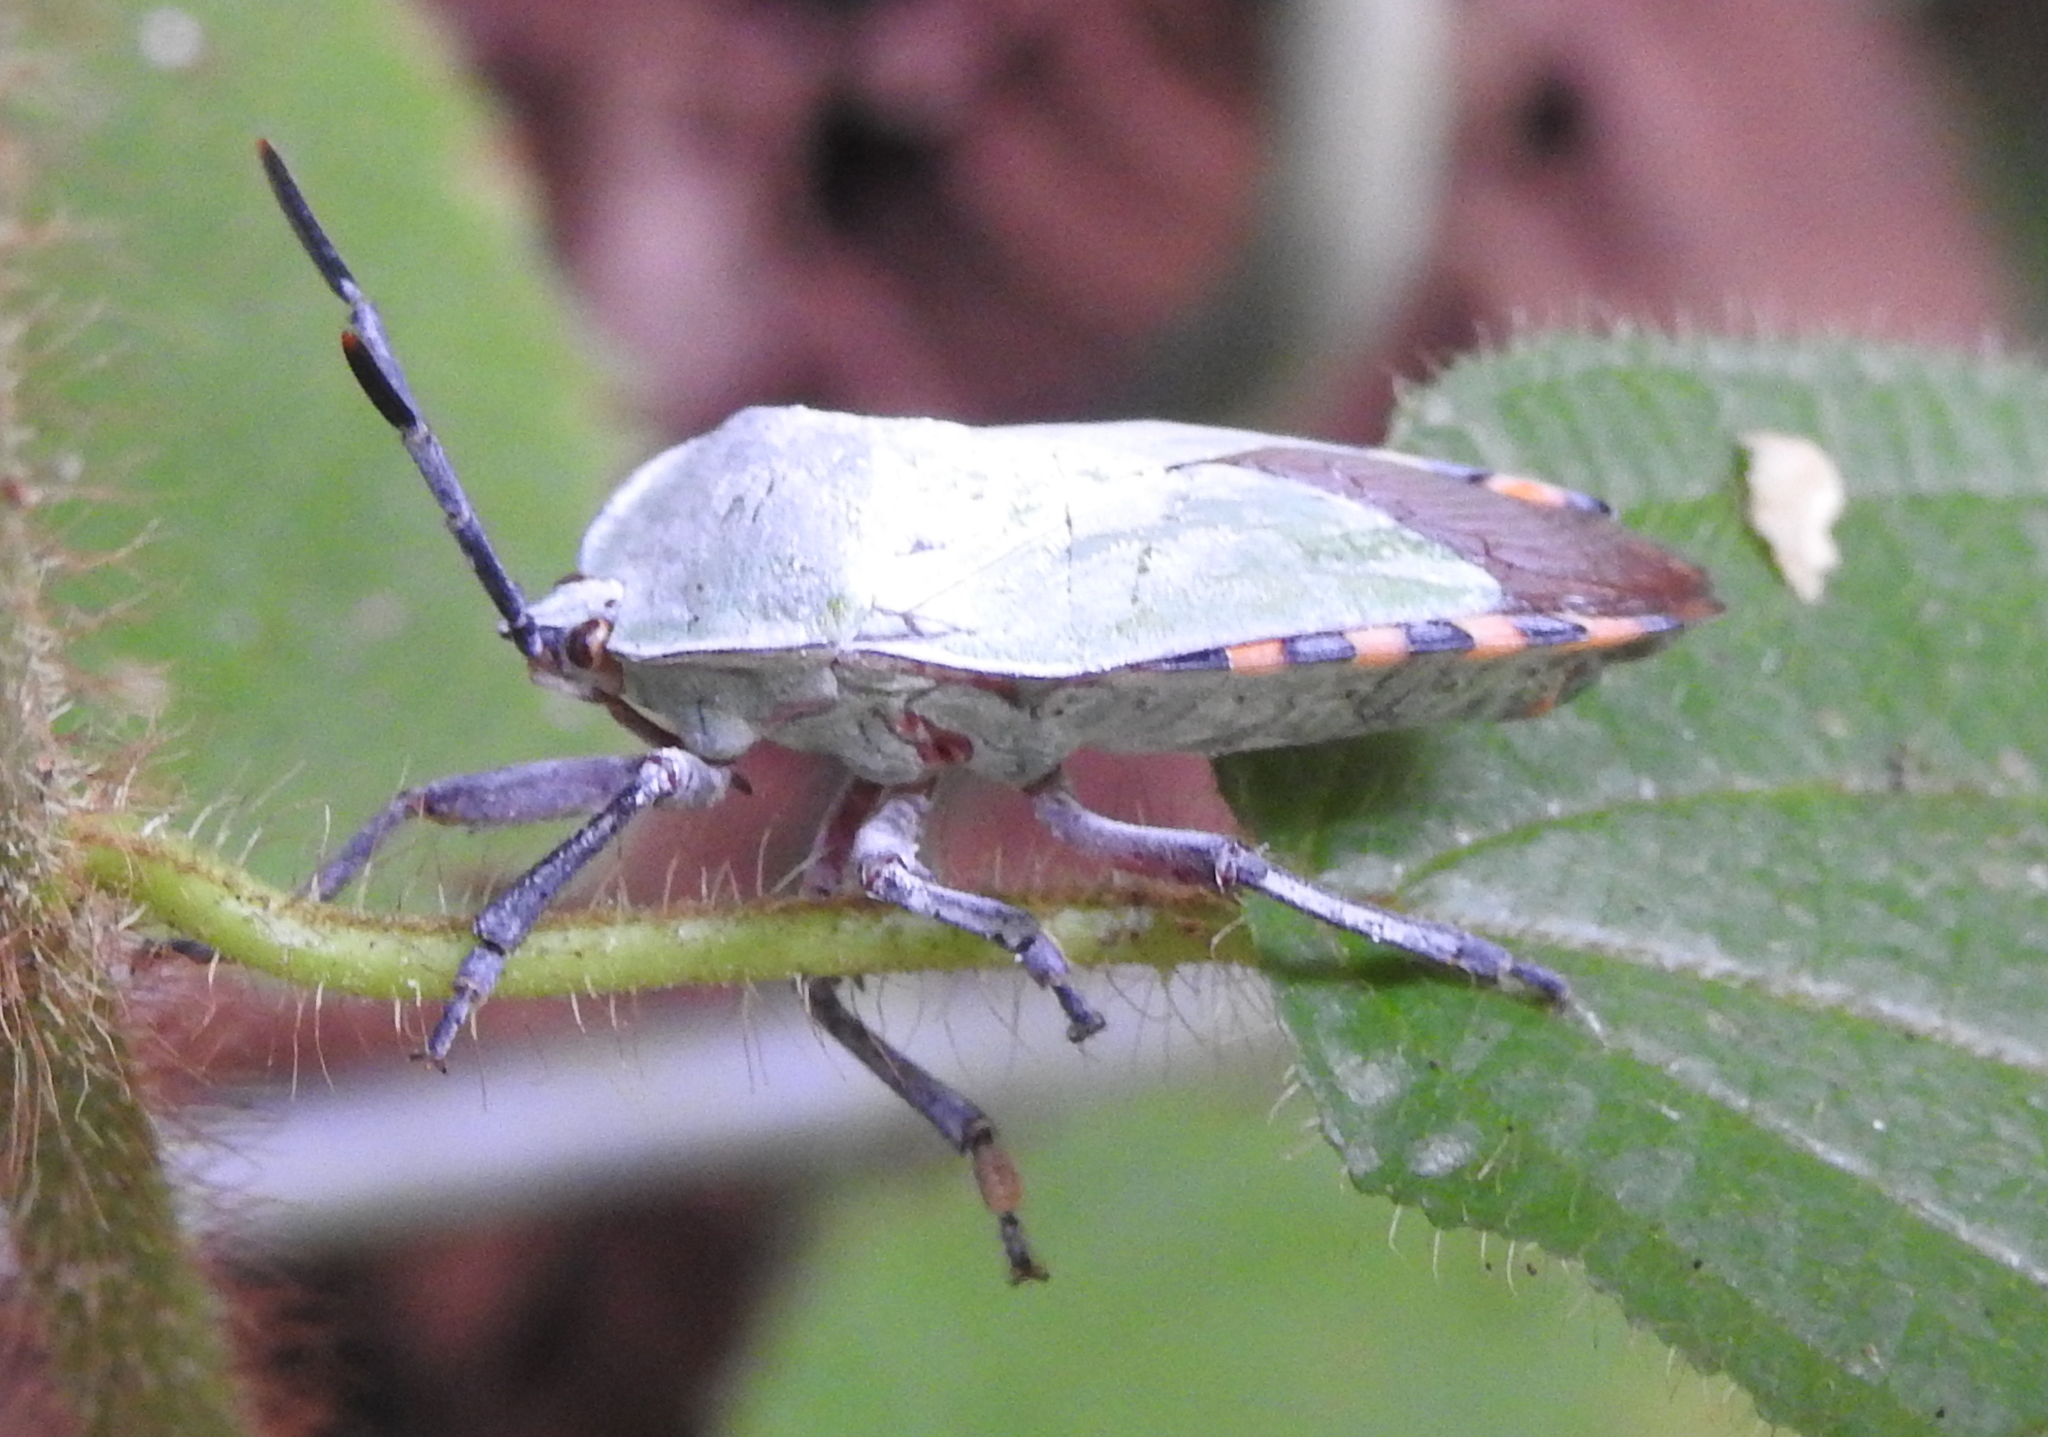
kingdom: Animalia
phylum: Arthropoda
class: Insecta
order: Hemiptera
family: Tessaratomidae
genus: Pycanum
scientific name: Pycanum alternatum
